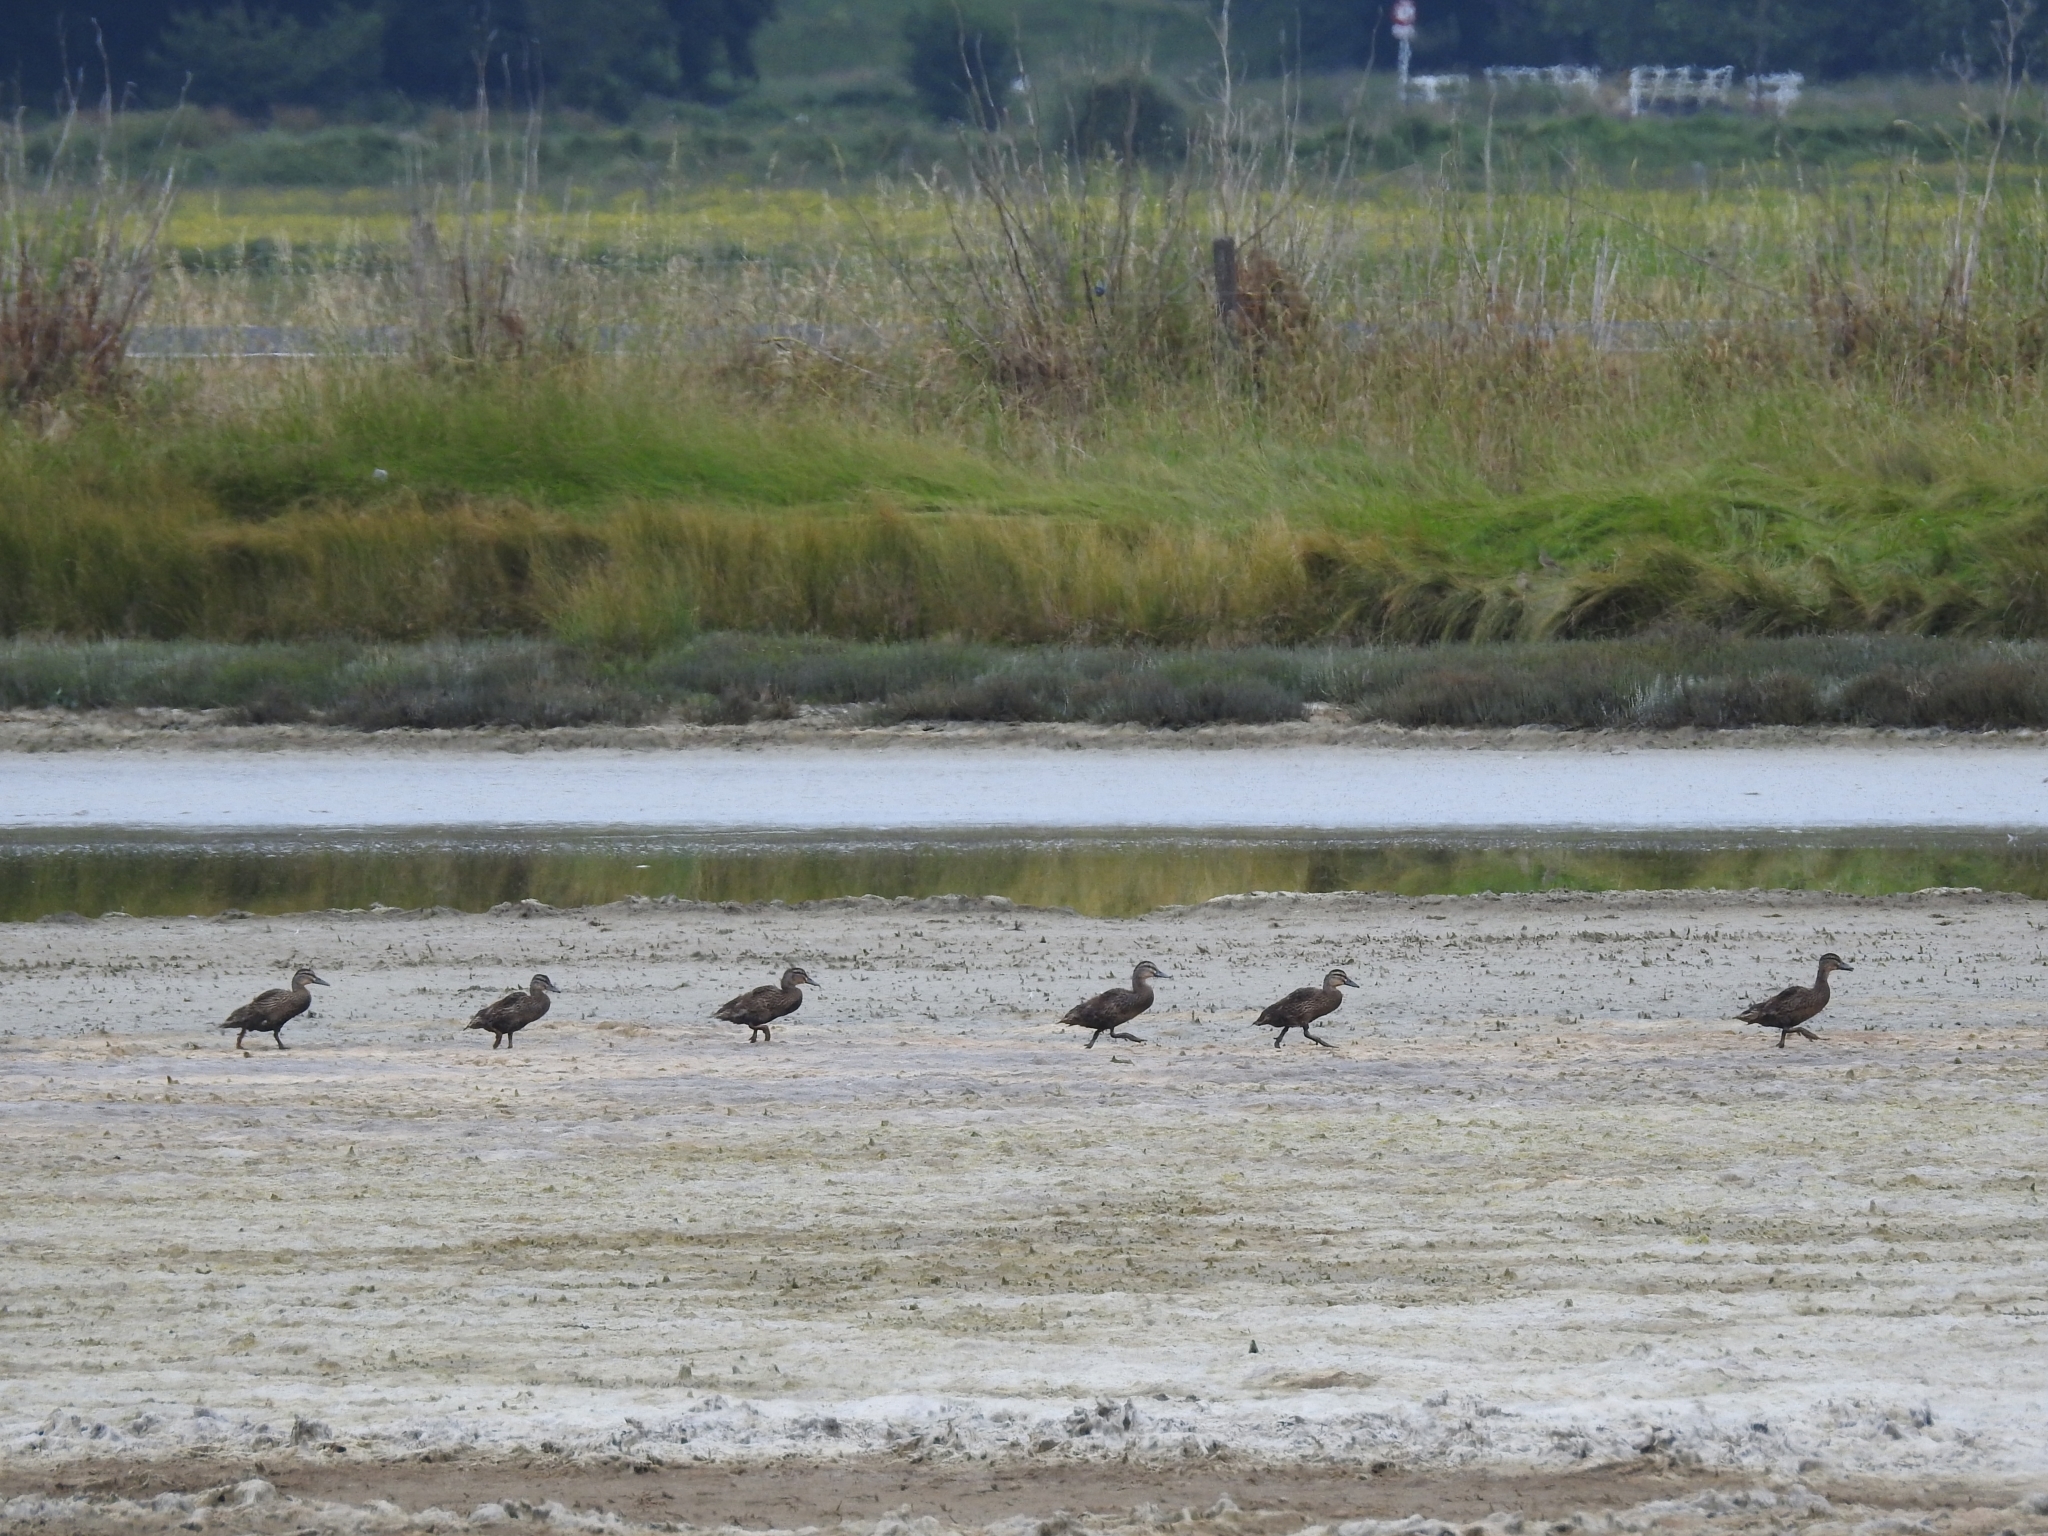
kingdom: Animalia
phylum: Chordata
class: Aves
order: Anseriformes
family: Anatidae
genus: Anas
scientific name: Anas
